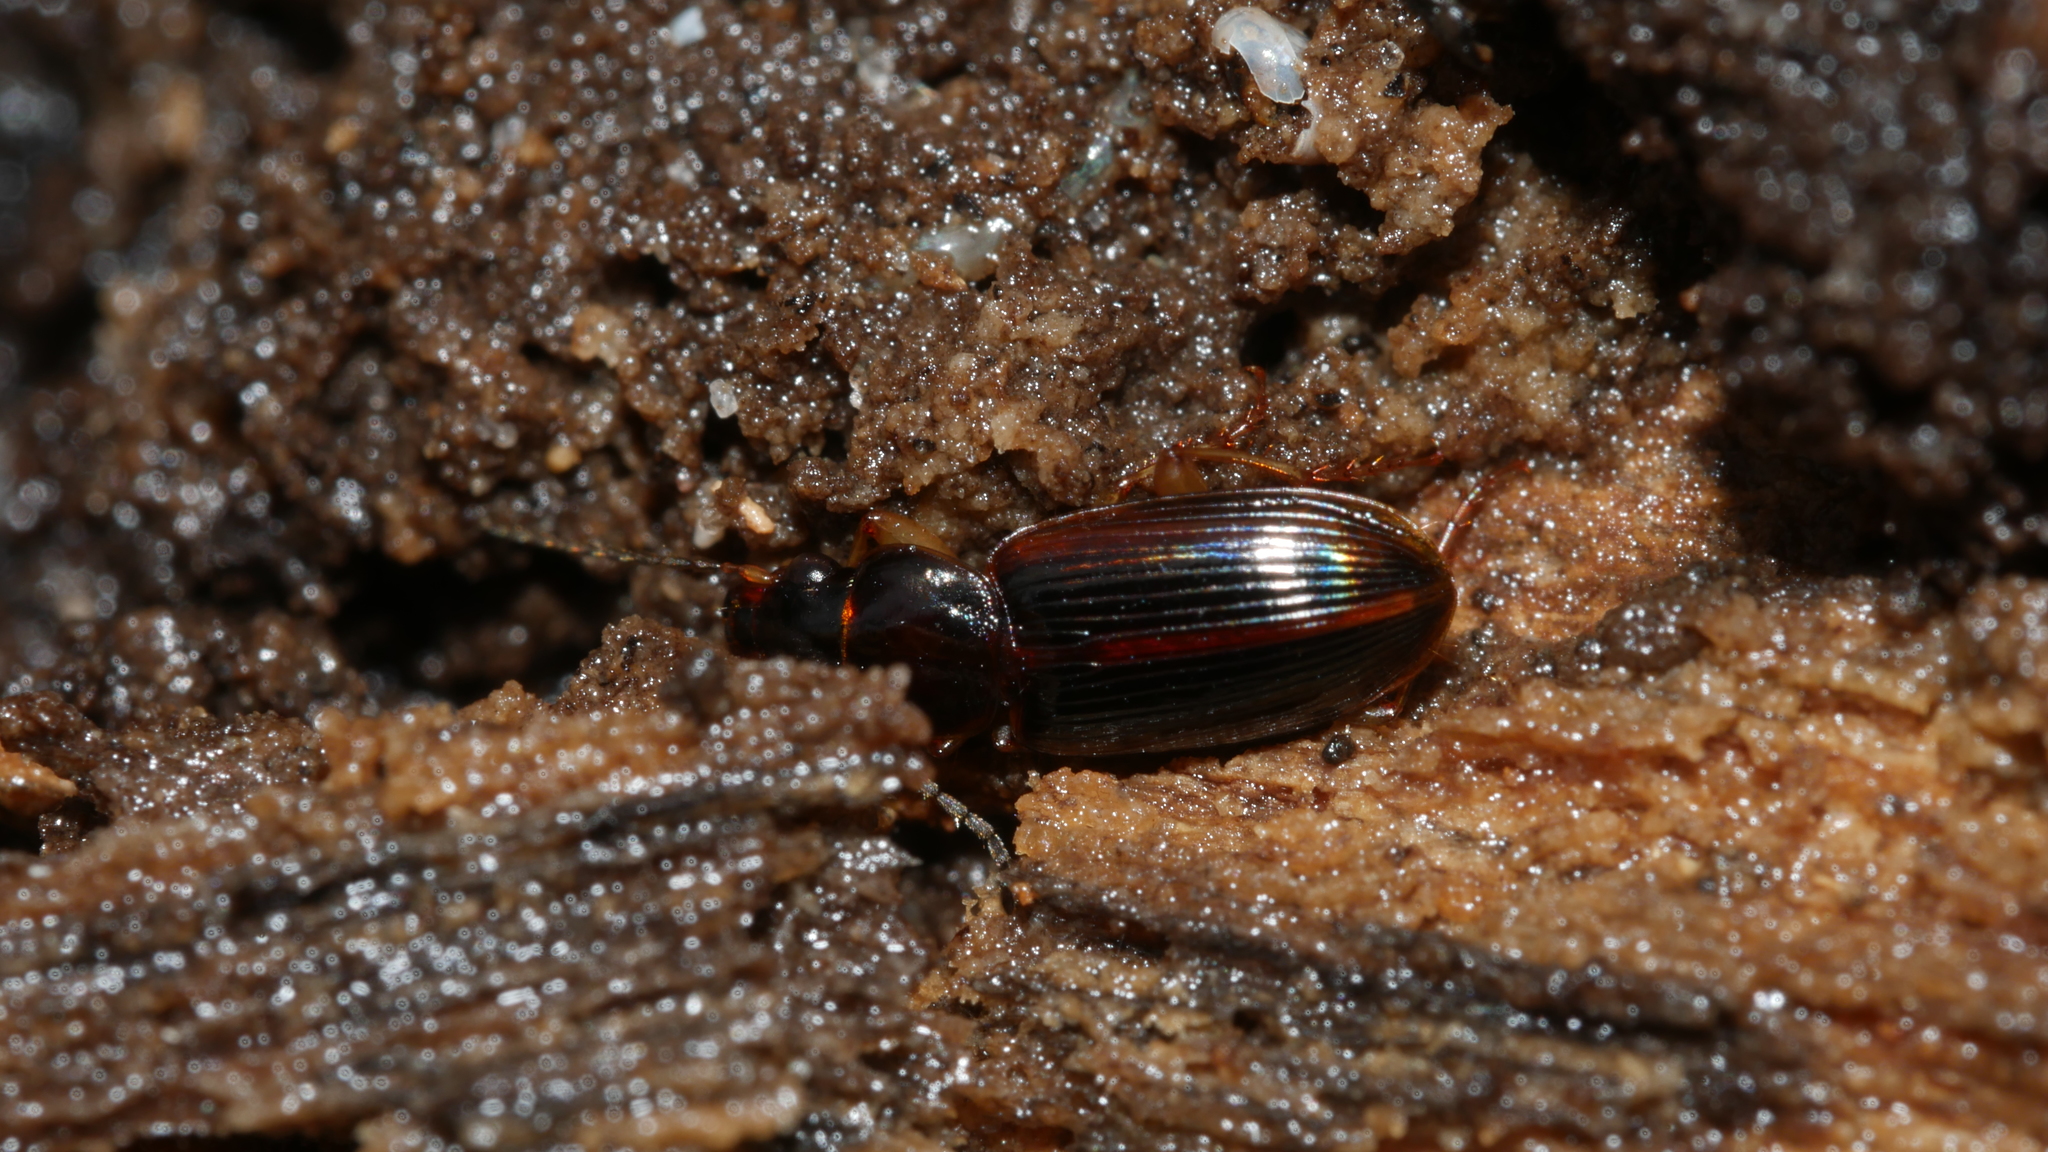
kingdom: Animalia
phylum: Arthropoda
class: Insecta
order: Coleoptera
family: Carabidae
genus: Stenolophus
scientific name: Stenolophus ochropezus
